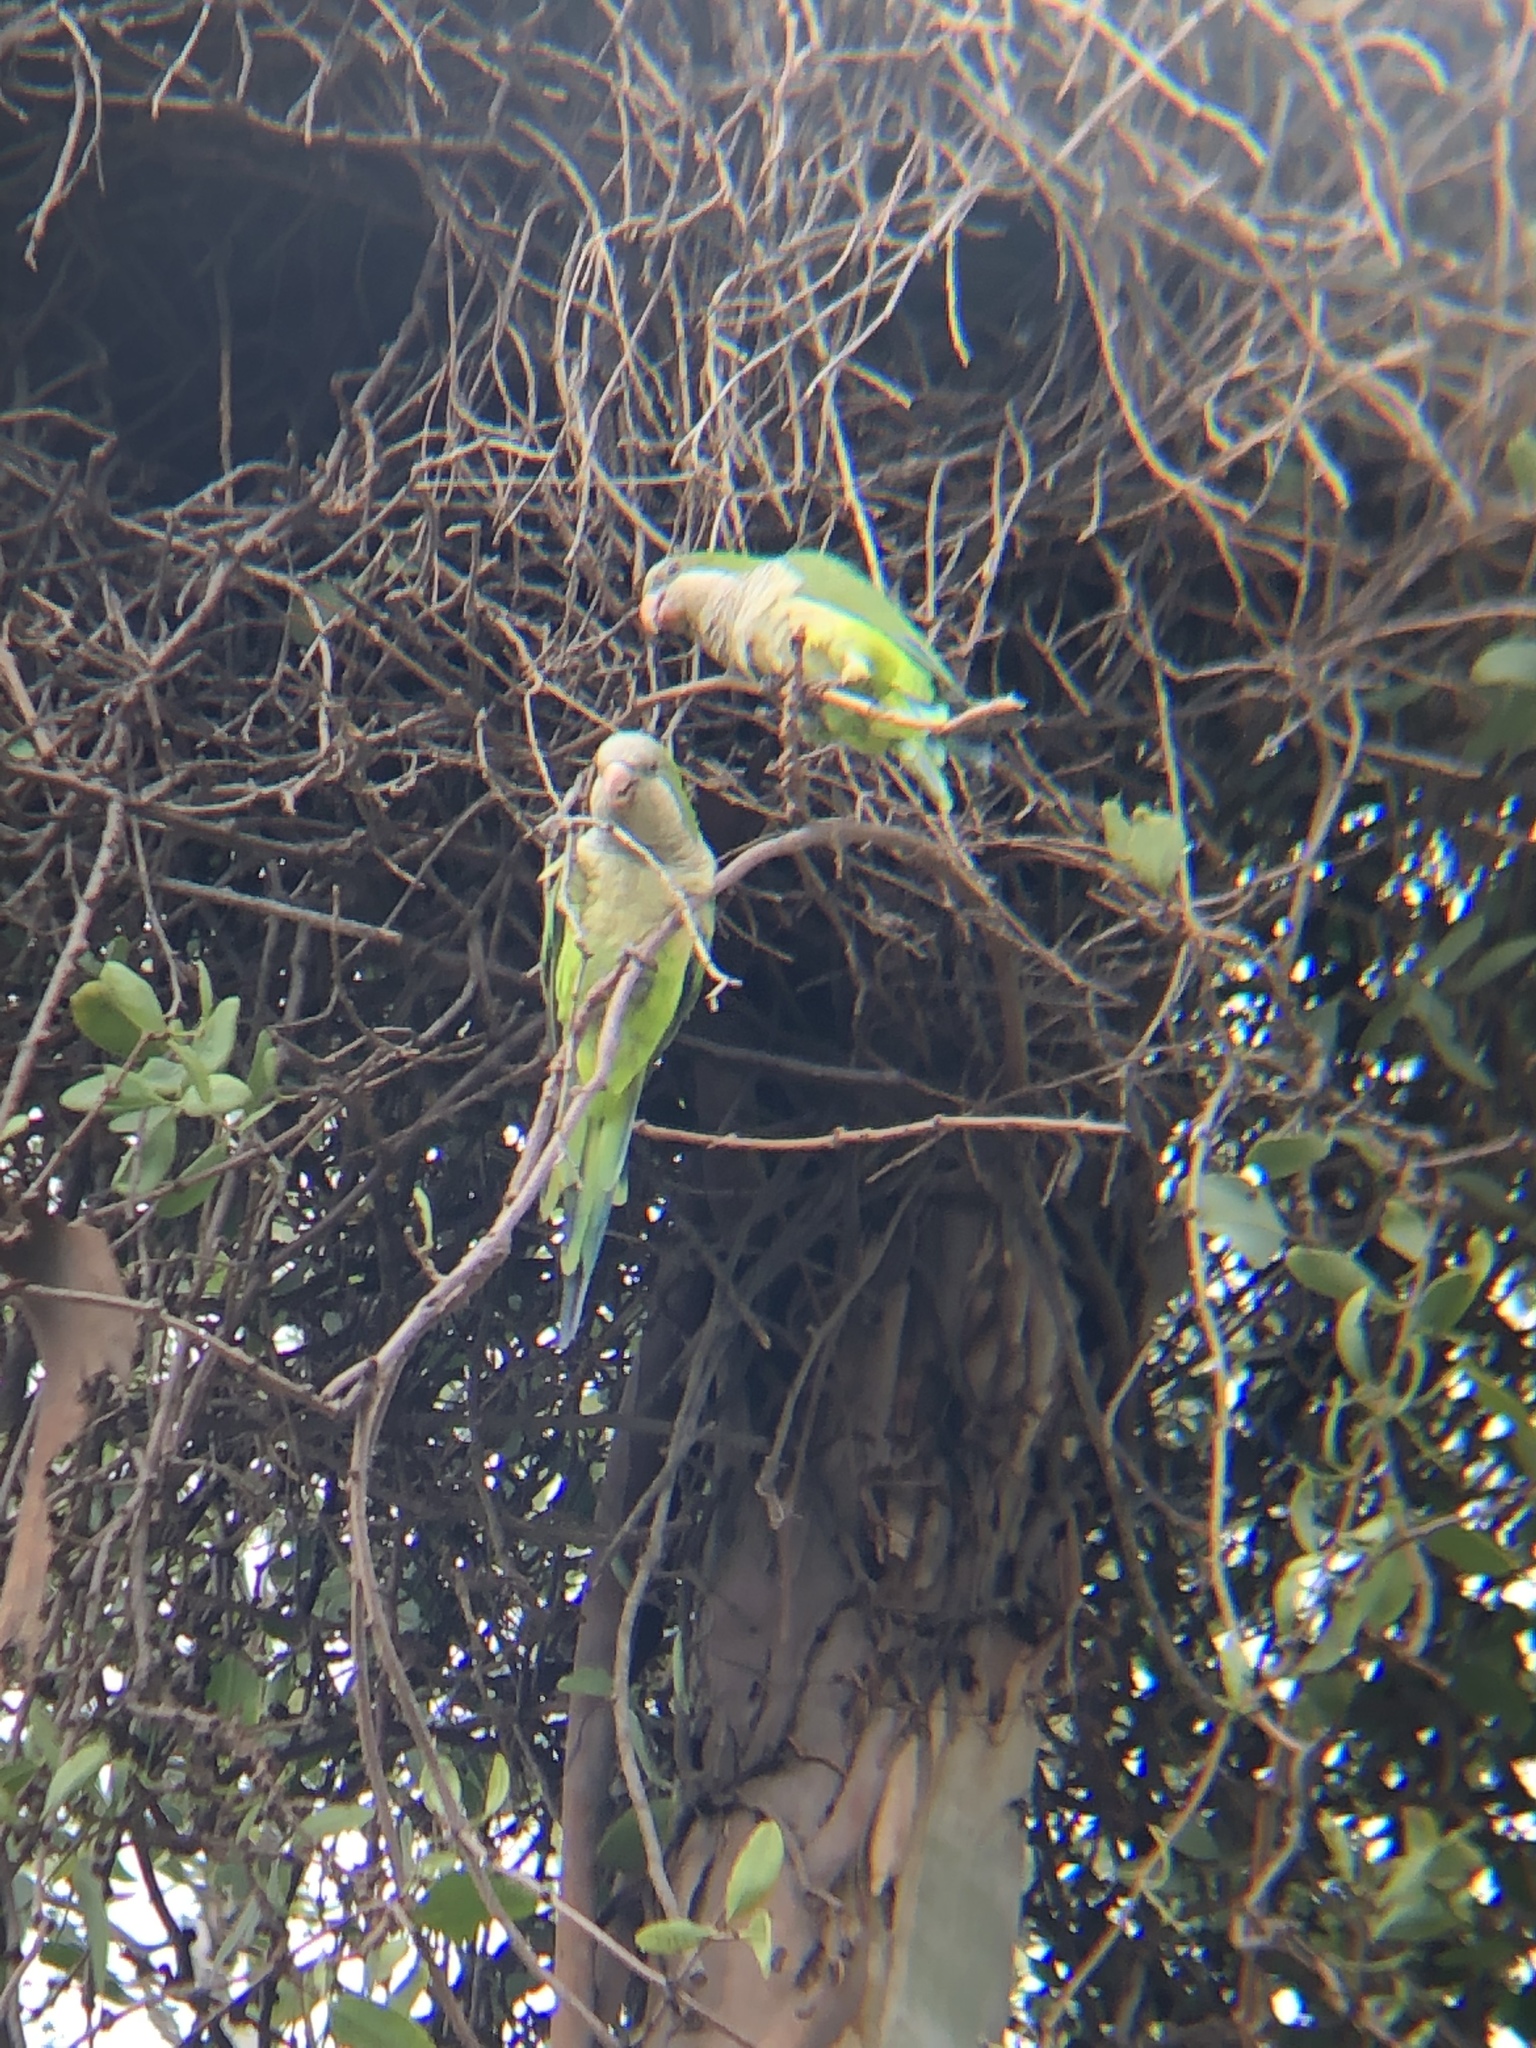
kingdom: Animalia
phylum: Chordata
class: Aves
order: Psittaciformes
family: Psittacidae
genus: Myiopsitta
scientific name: Myiopsitta monachus
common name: Monk parakeet
